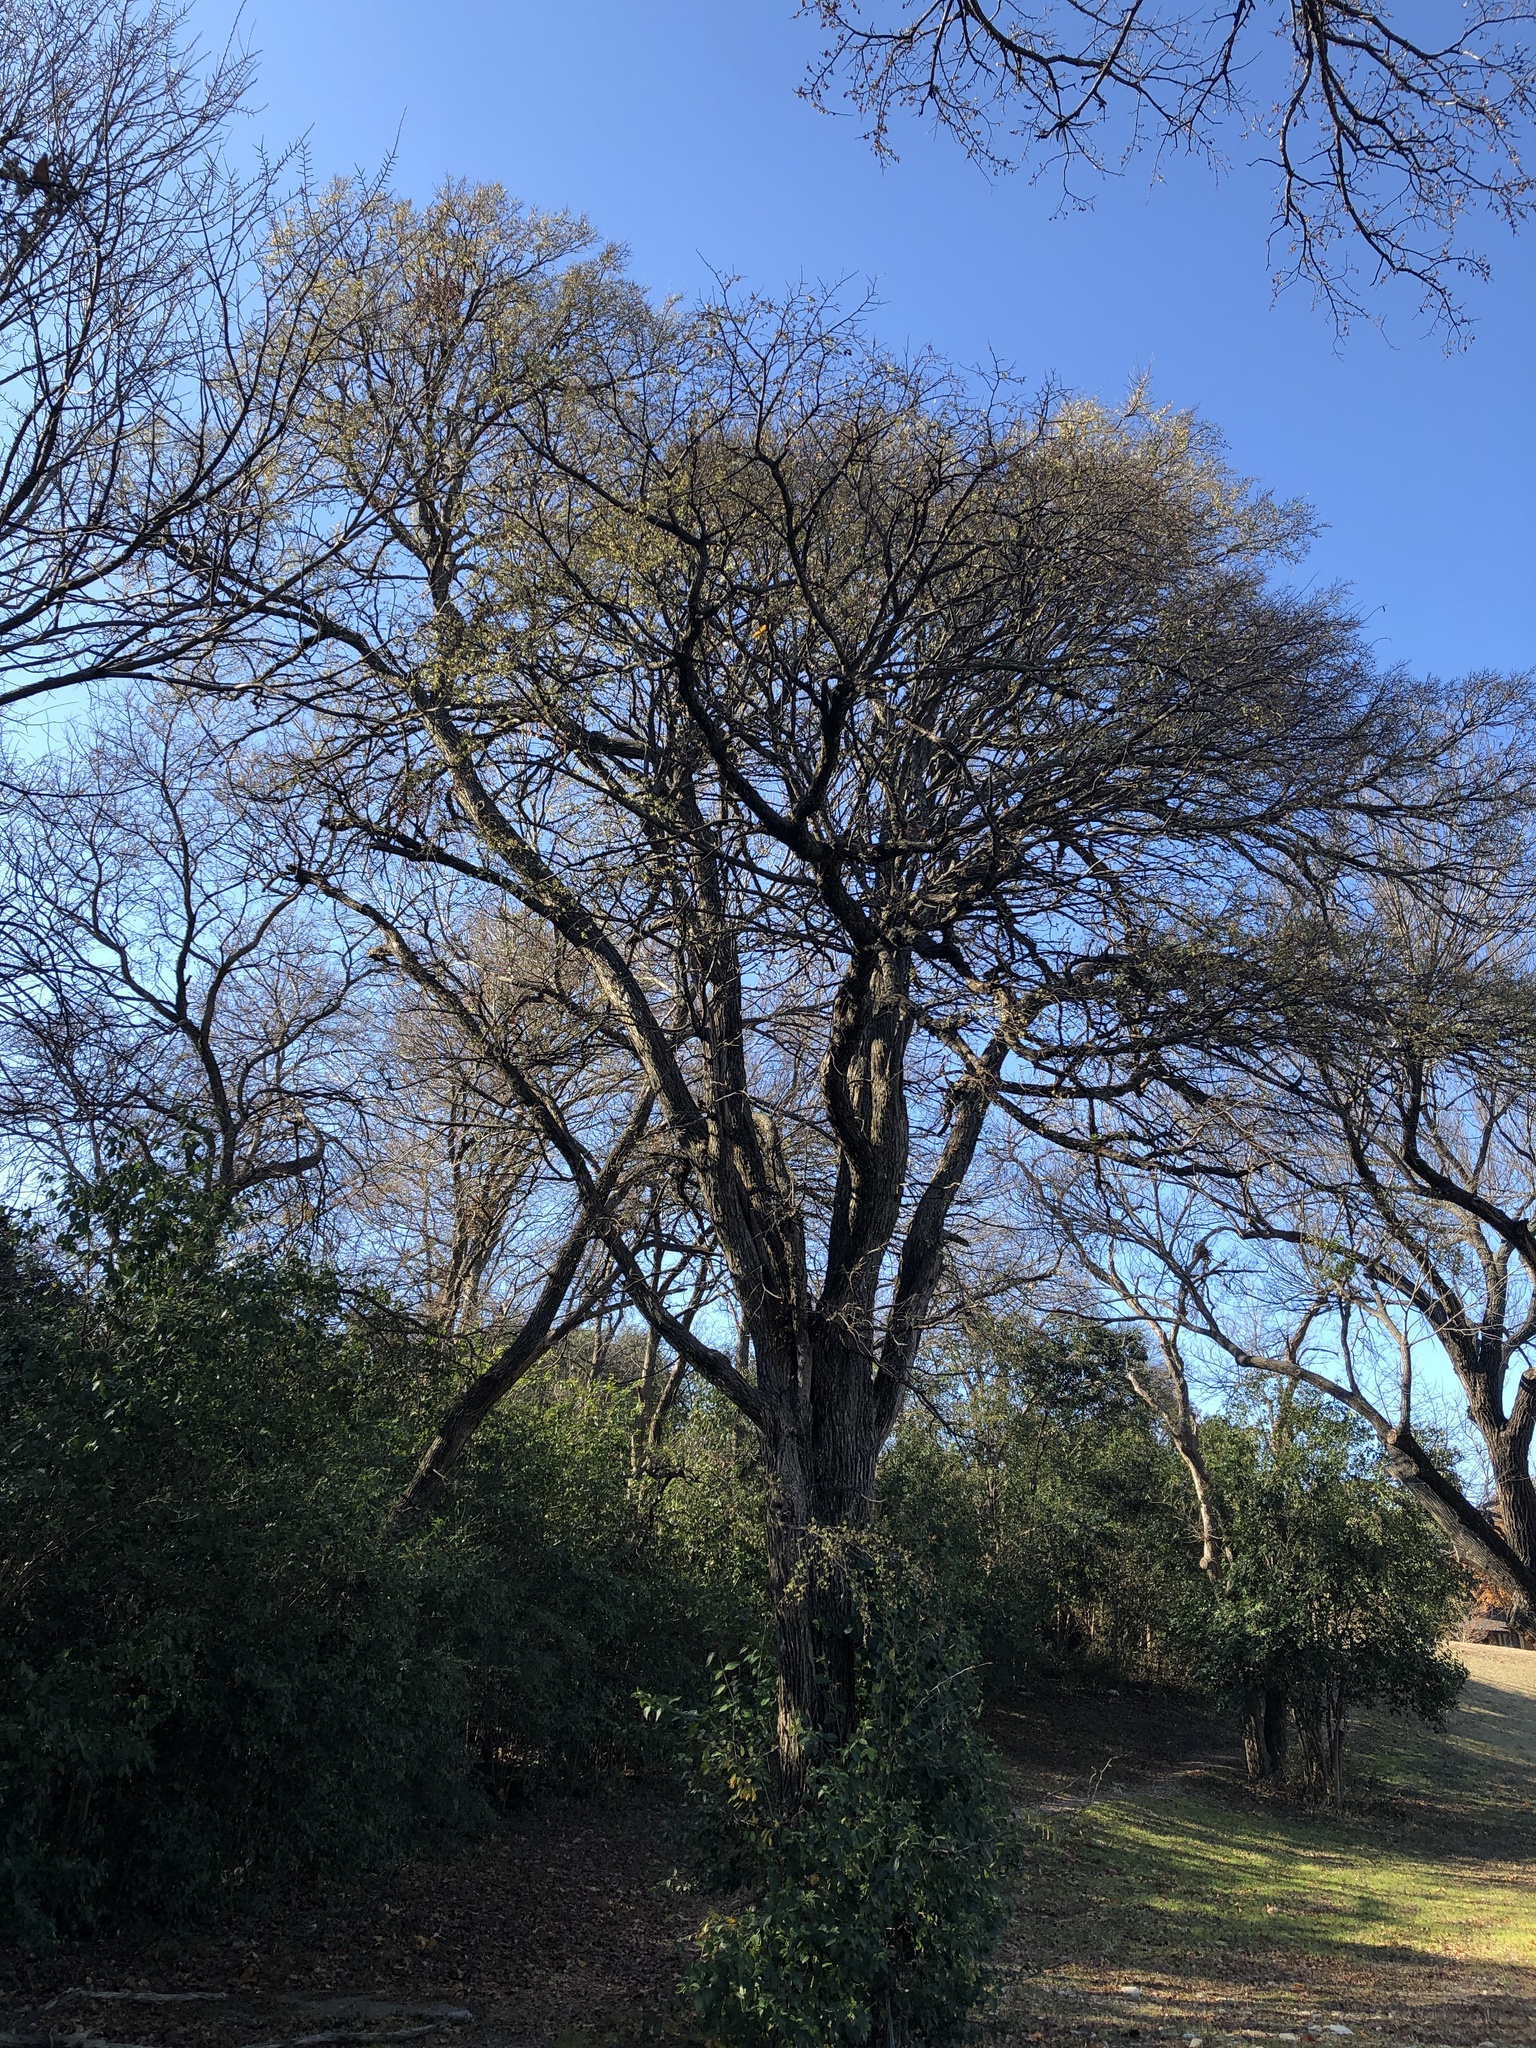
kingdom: Plantae
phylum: Tracheophyta
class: Magnoliopsida
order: Rosales
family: Ulmaceae
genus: Ulmus
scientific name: Ulmus crassifolia
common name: Basket elm
